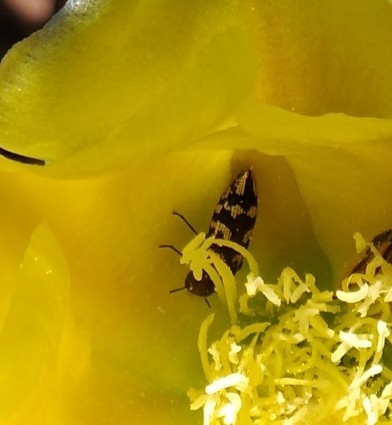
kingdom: Animalia
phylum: Arthropoda
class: Insecta
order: Coleoptera
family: Buprestidae
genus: Acmaeodera
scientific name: Acmaeodera bowditchi
